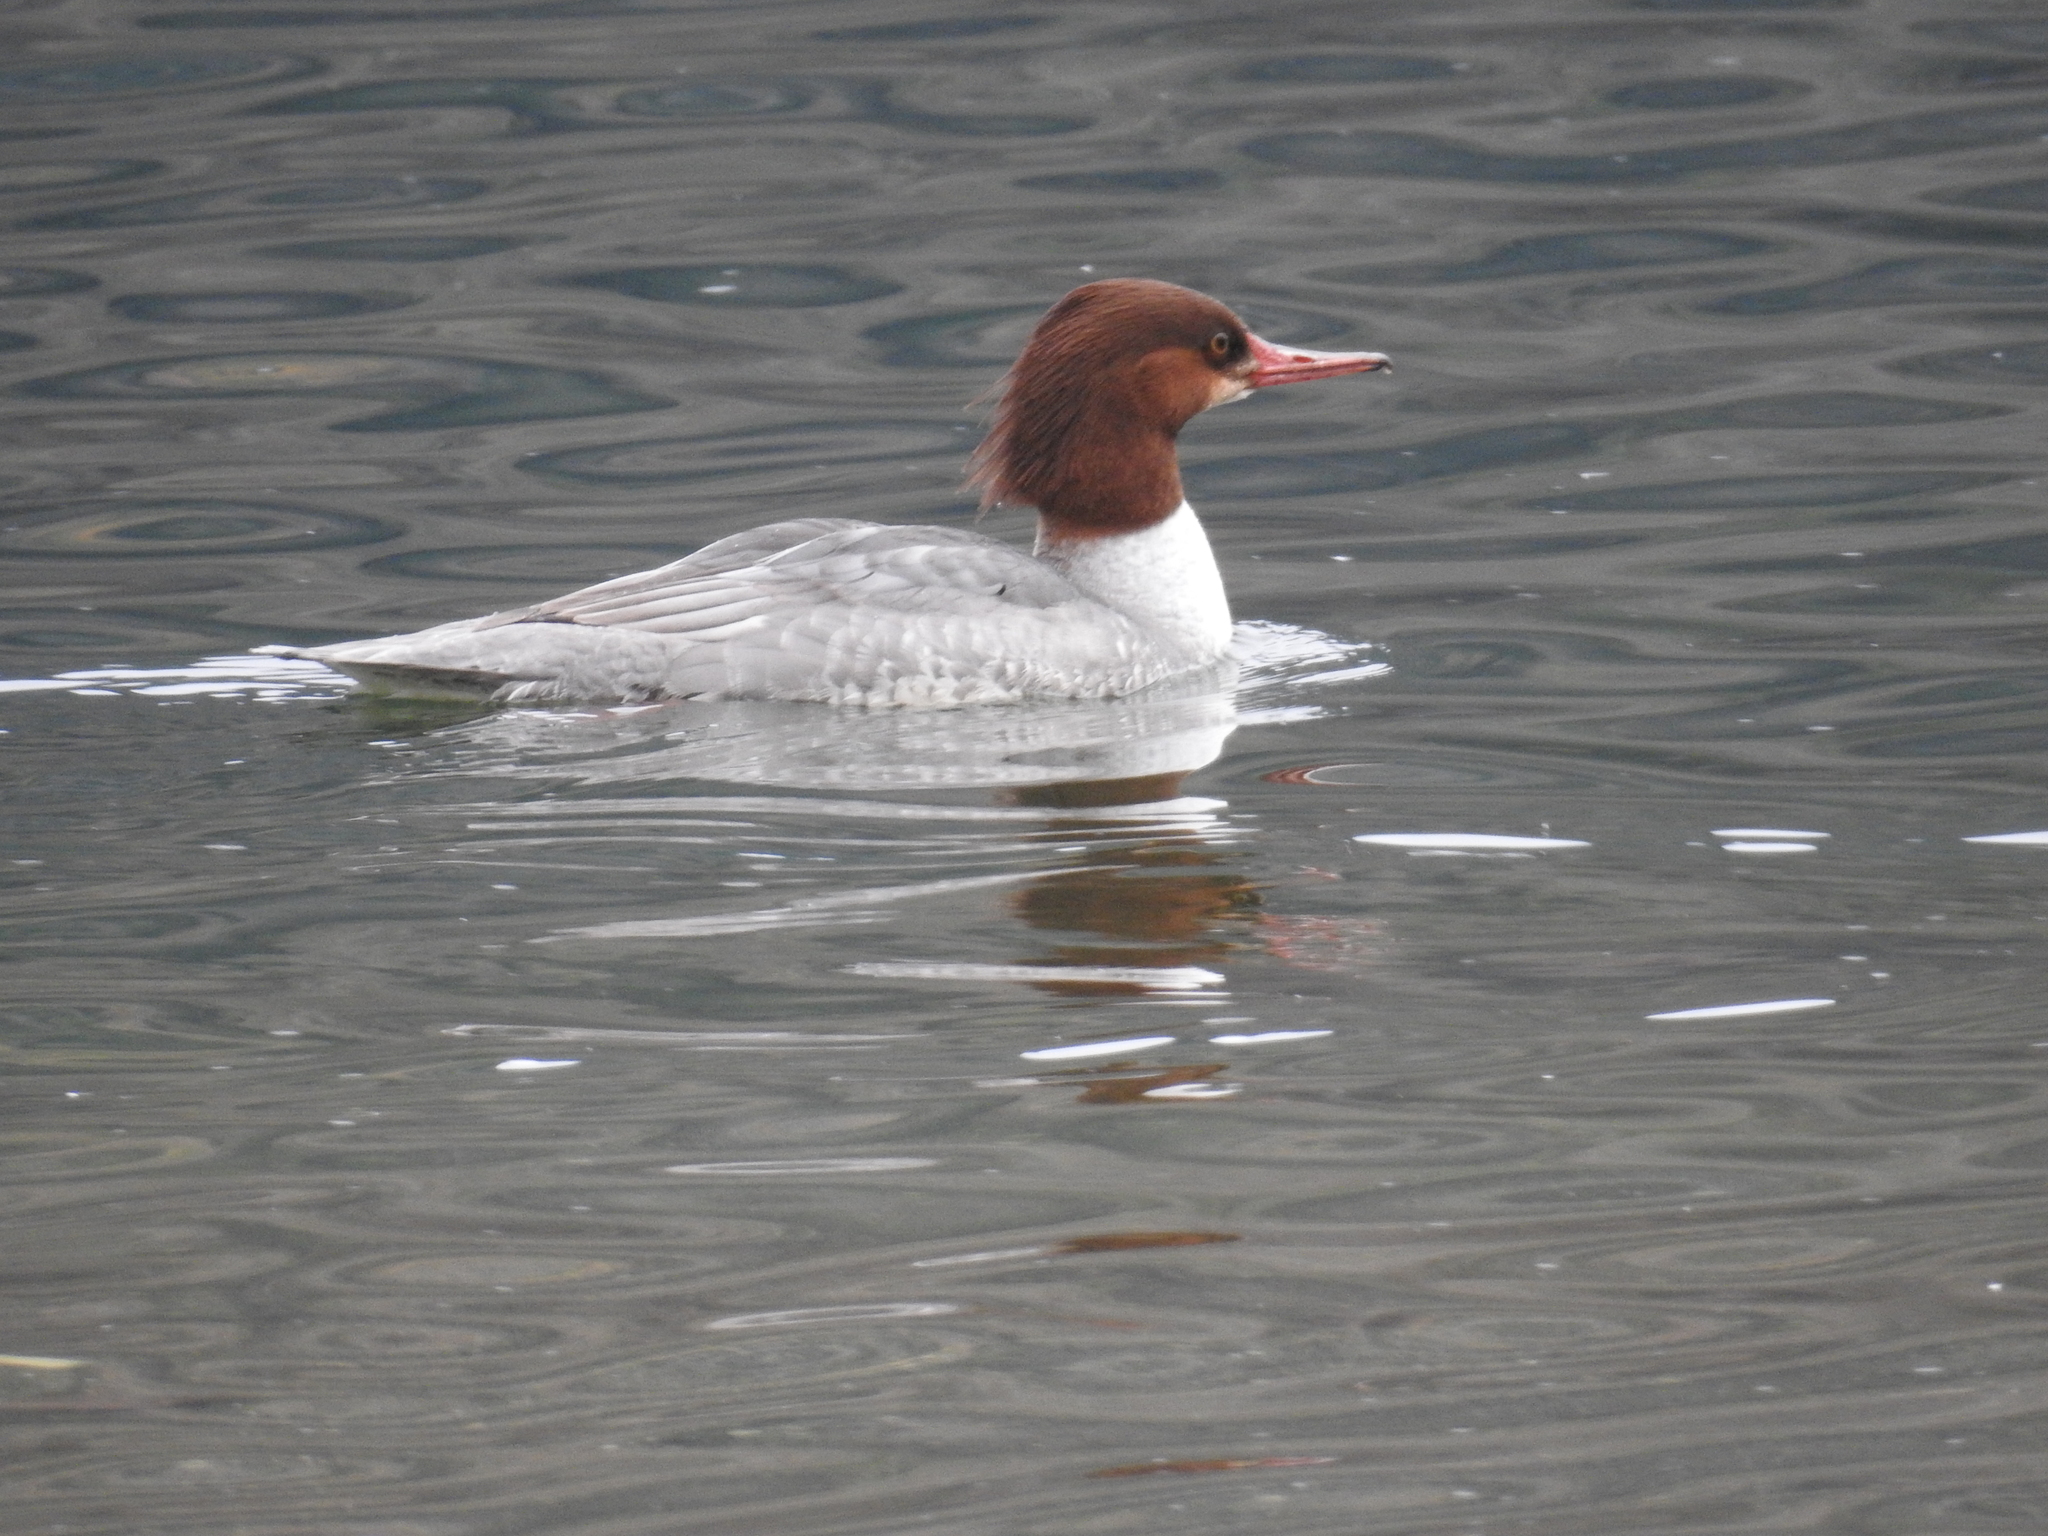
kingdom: Animalia
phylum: Chordata
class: Aves
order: Anseriformes
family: Anatidae
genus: Mergus
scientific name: Mergus merganser
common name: Common merganser
